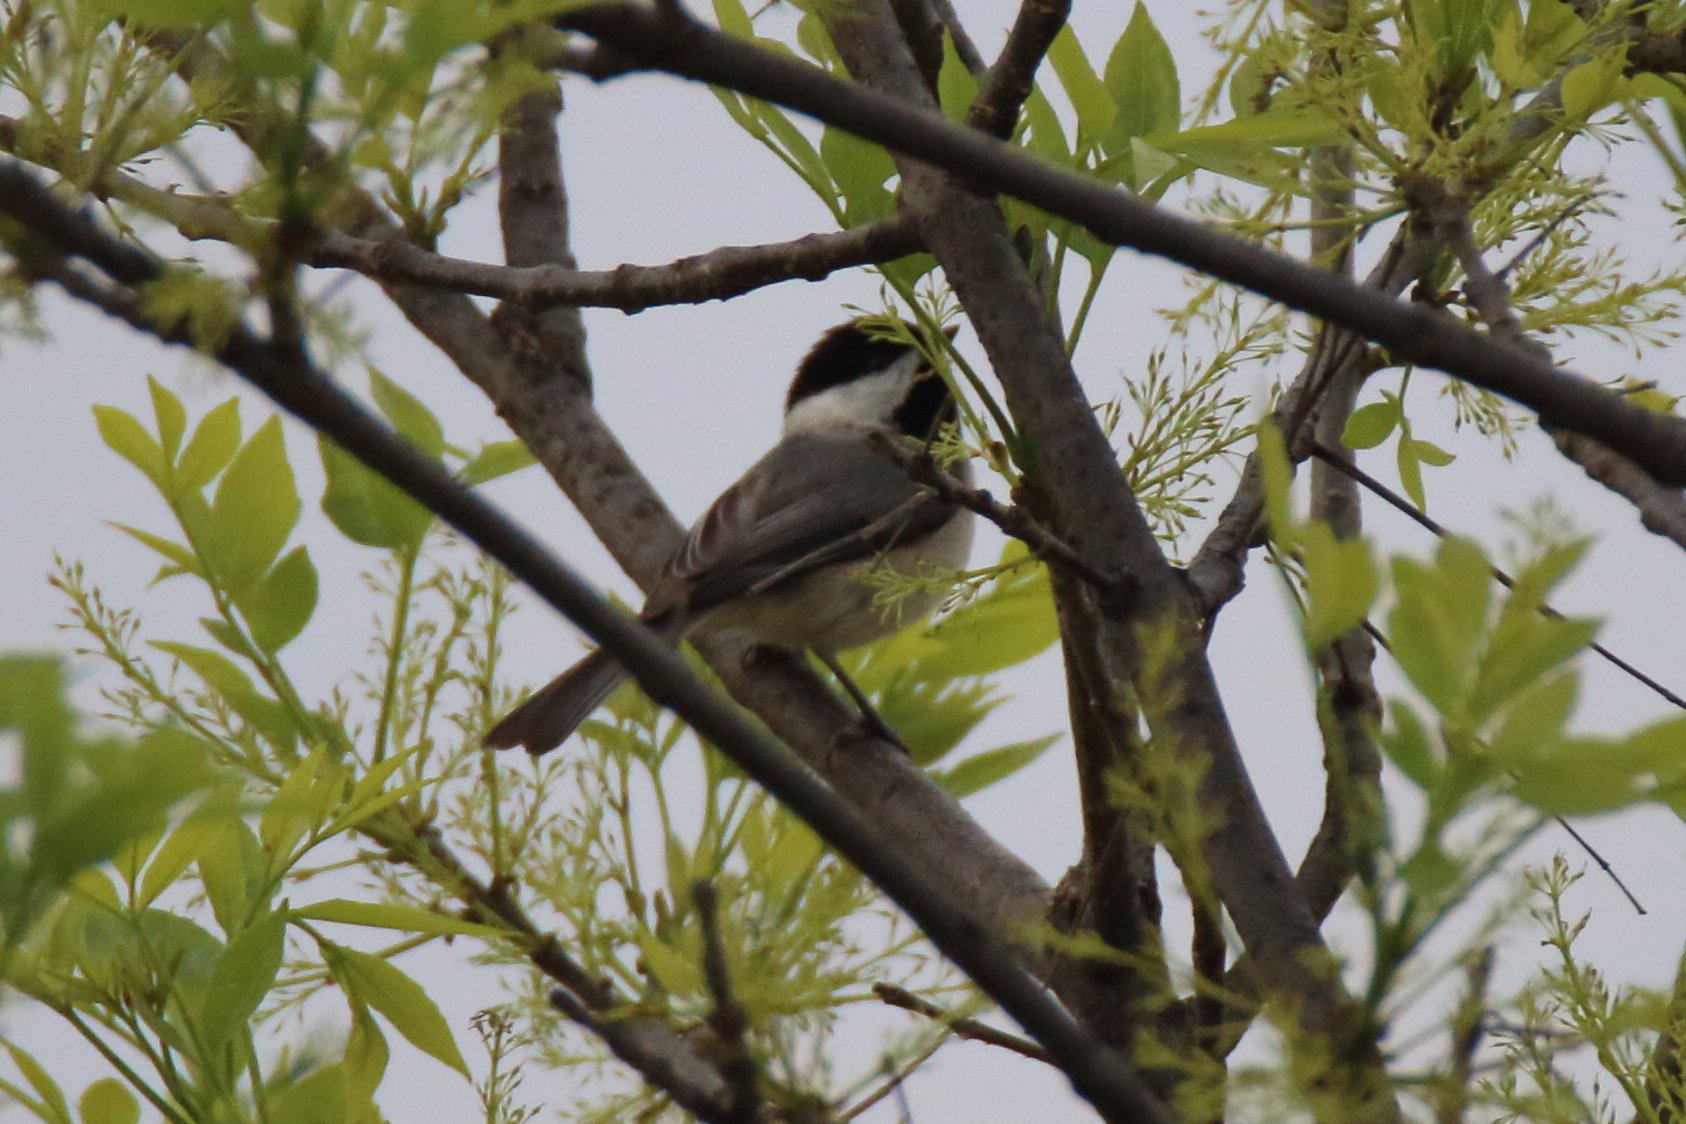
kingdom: Animalia
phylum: Chordata
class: Aves
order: Passeriformes
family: Paridae
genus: Poecile
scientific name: Poecile carolinensis
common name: Carolina chickadee
